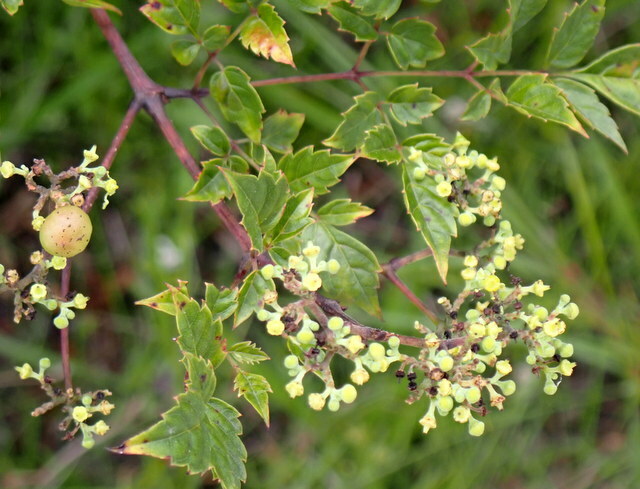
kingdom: Plantae
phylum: Tracheophyta
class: Magnoliopsida
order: Vitales
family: Vitaceae
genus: Nekemias
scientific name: Nekemias arborea
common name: Peppervine
